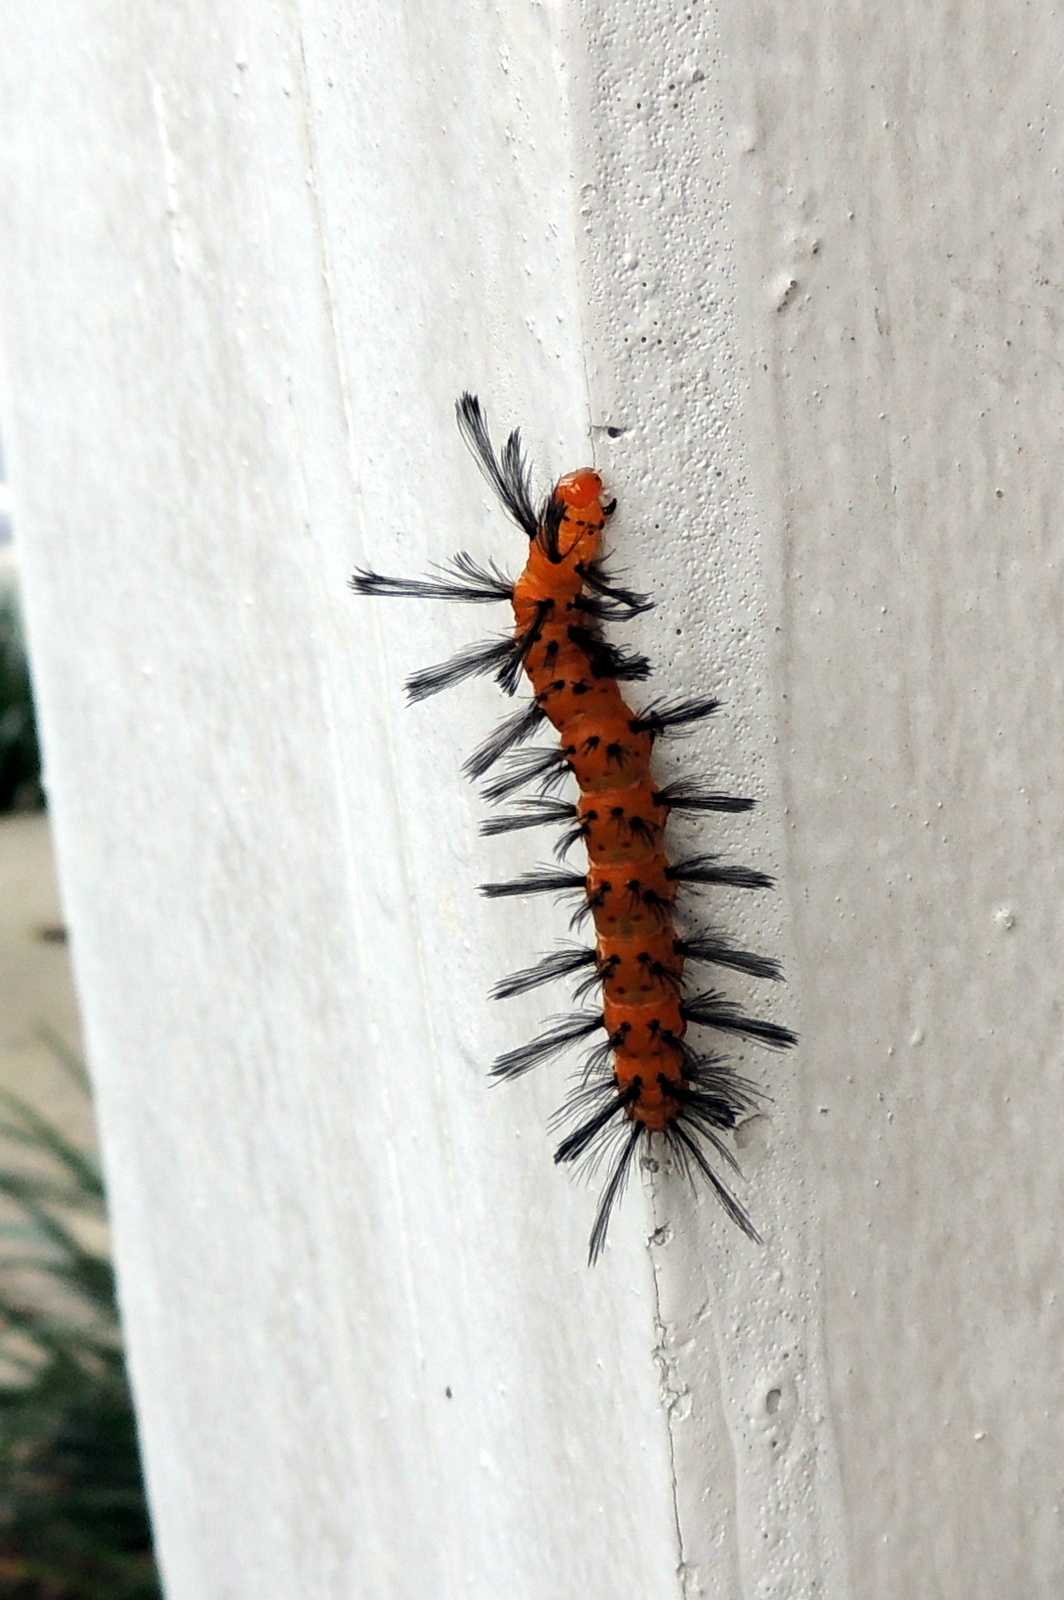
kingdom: Animalia
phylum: Arthropoda
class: Insecta
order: Lepidoptera
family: Erebidae
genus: Syntomeida
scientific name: Syntomeida epilais
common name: Polka-dot wasp moth
